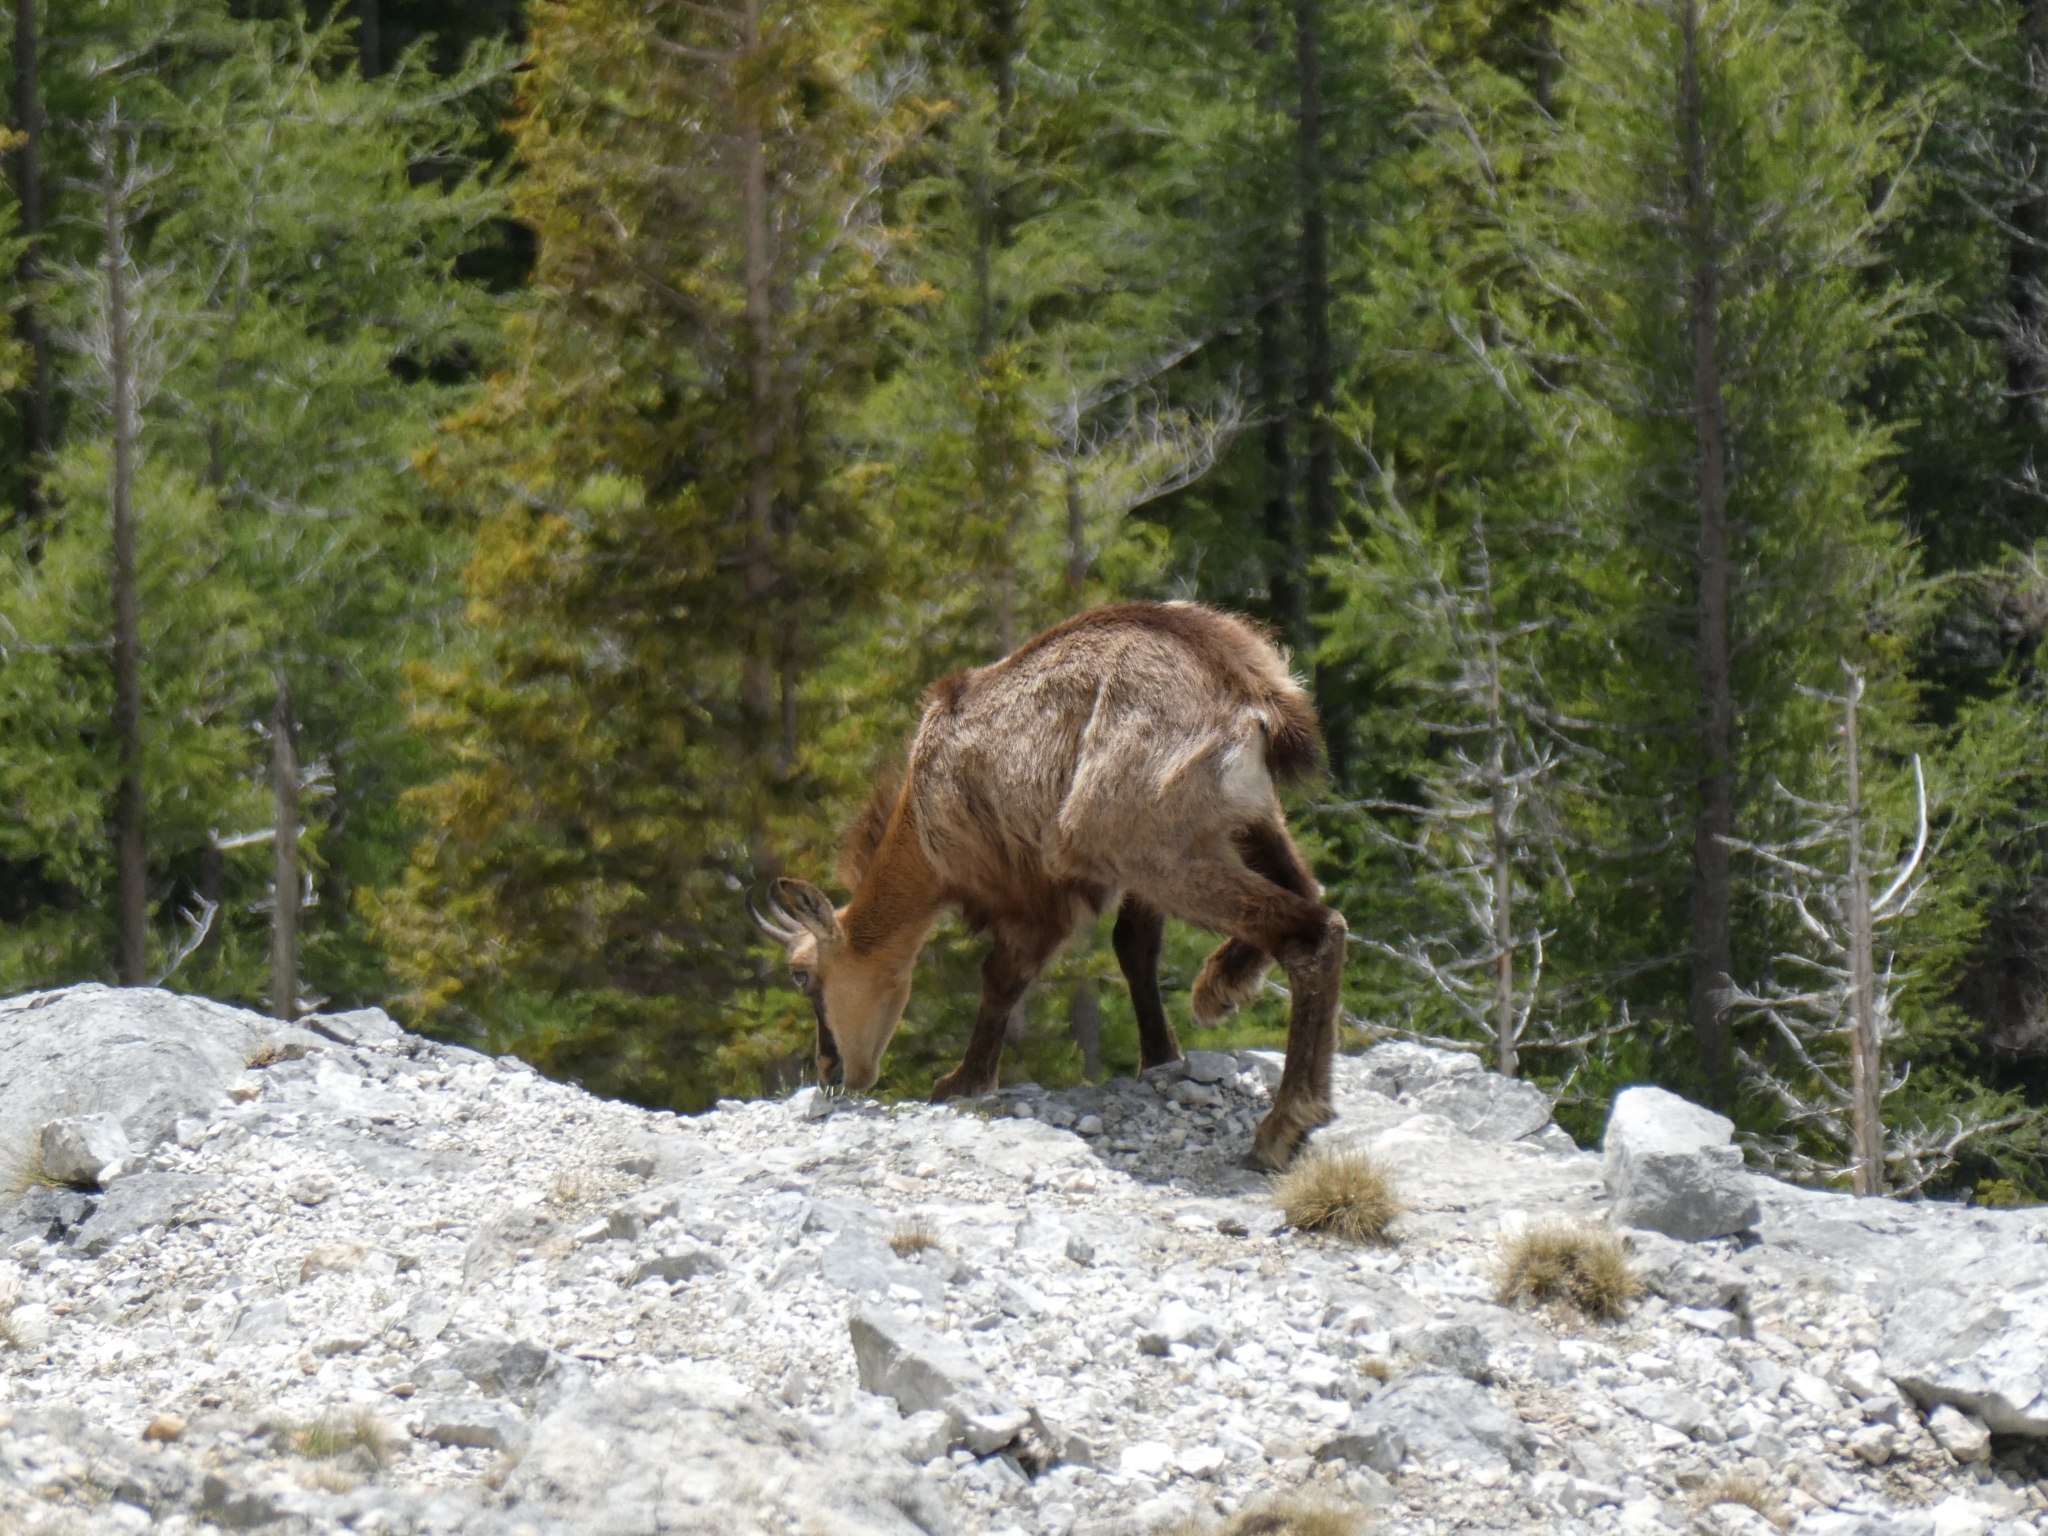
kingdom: Animalia
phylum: Chordata
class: Mammalia
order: Artiodactyla
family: Bovidae
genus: Rupicapra
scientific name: Rupicapra rupicapra
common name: Chamois
